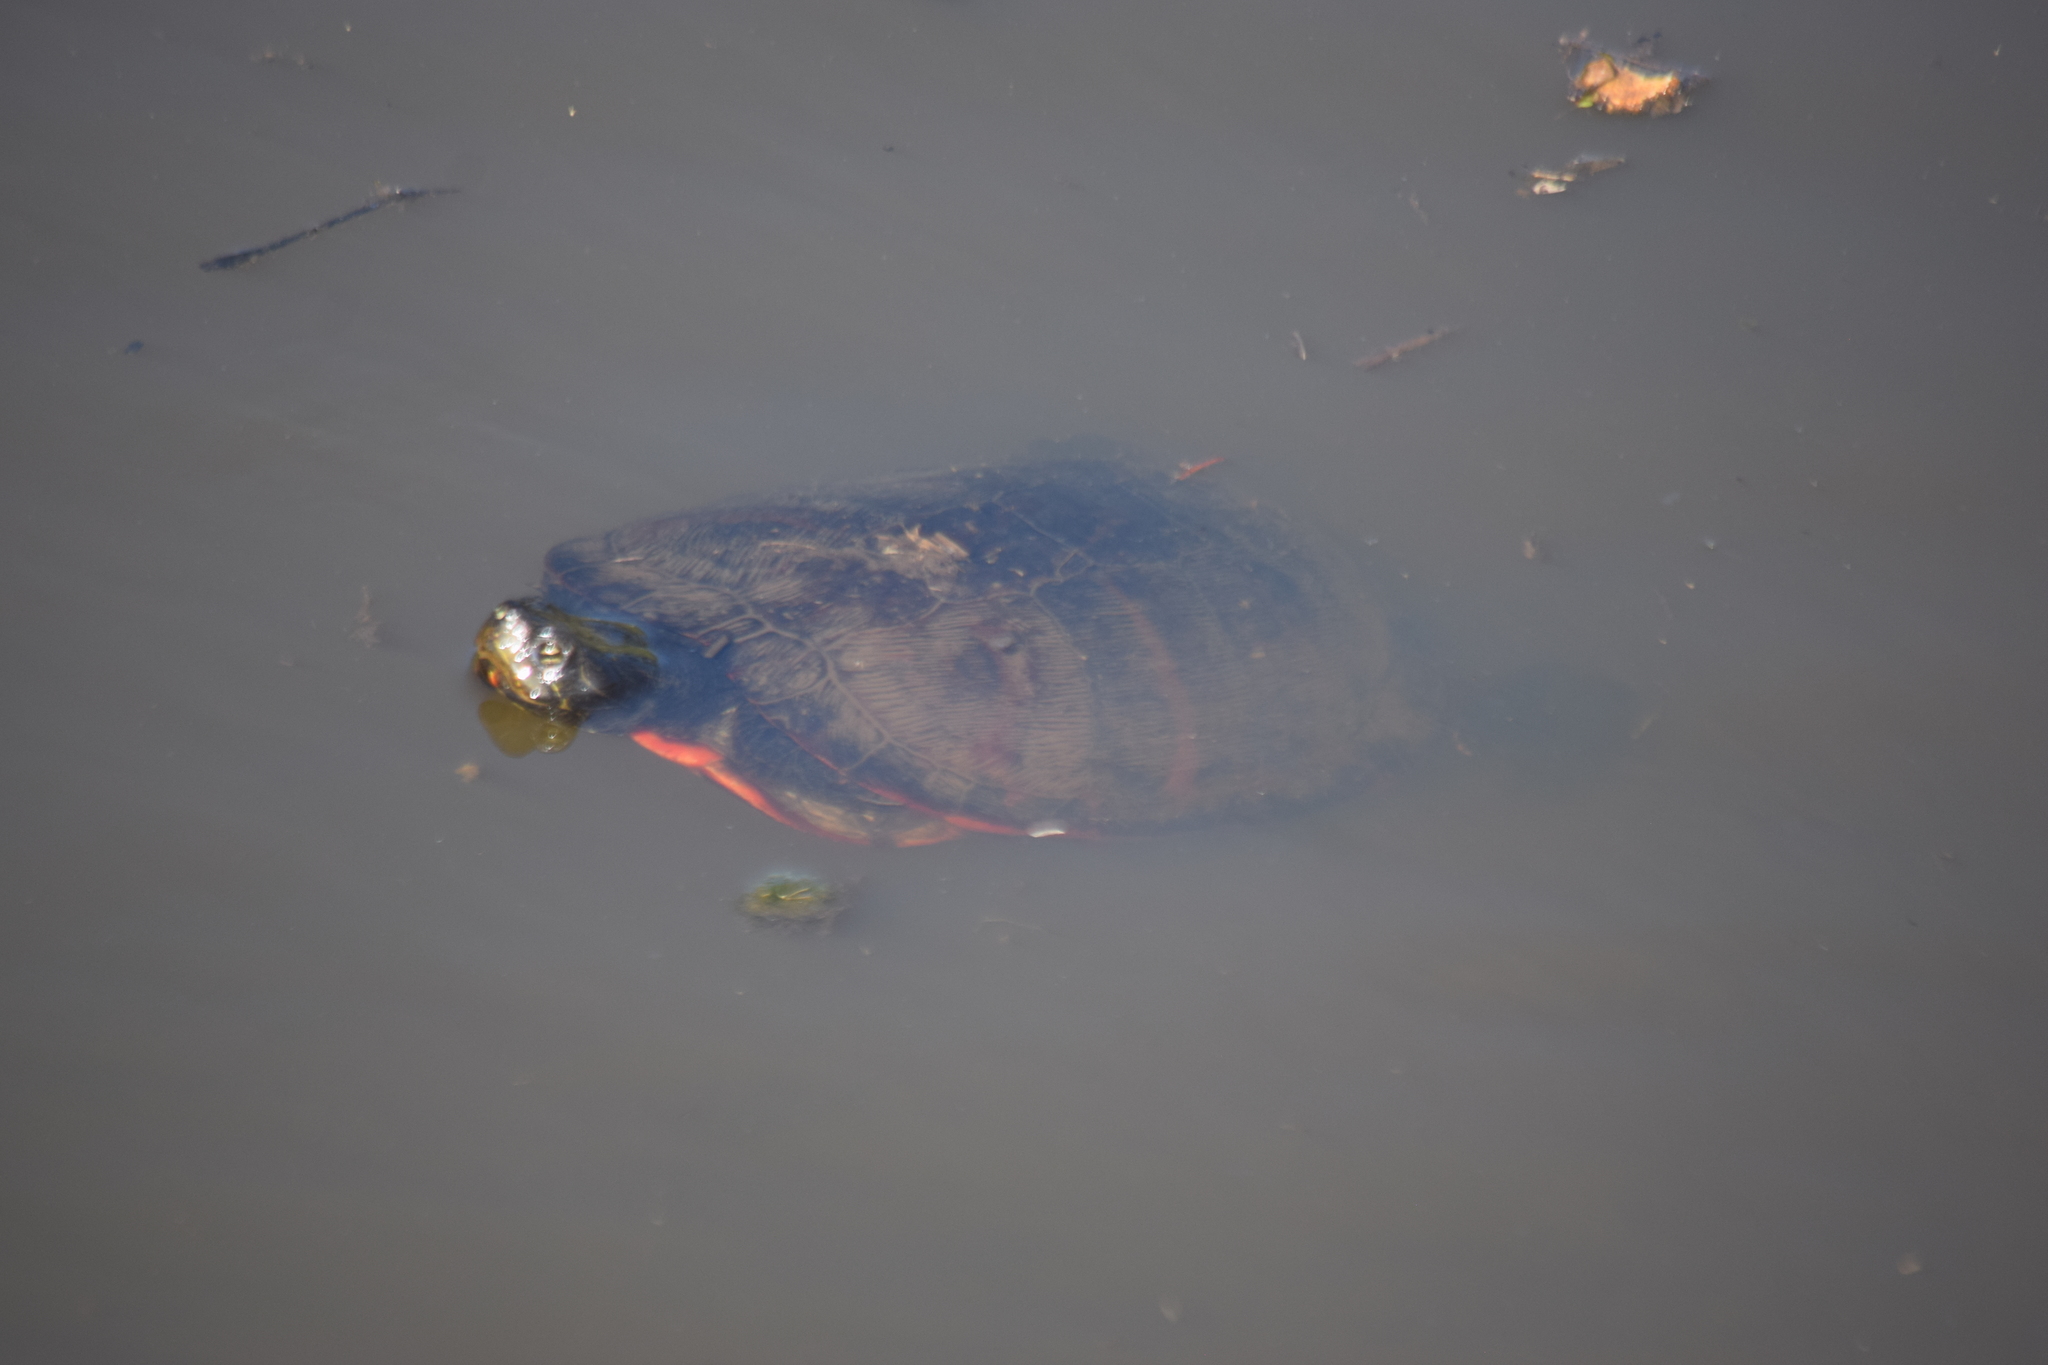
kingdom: Animalia
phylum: Chordata
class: Testudines
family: Emydidae
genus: Pseudemys
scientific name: Pseudemys rubriventris
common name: American red-bellied turtle
